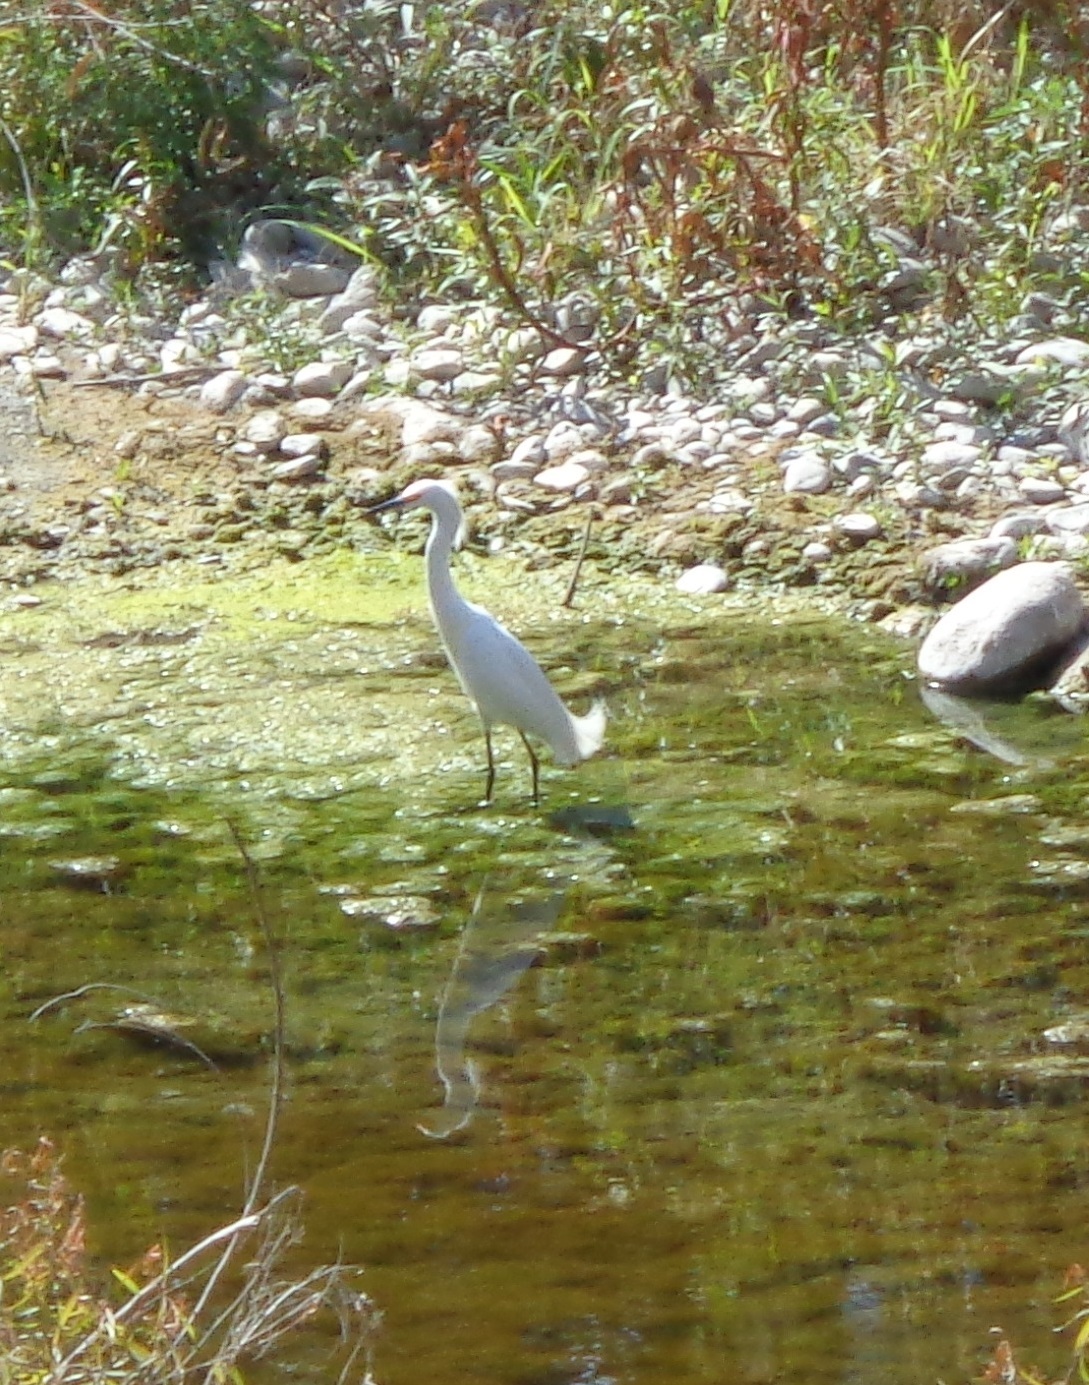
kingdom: Animalia
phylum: Chordata
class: Aves
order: Pelecaniformes
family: Ardeidae
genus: Egretta
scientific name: Egretta thula
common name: Snowy egret
